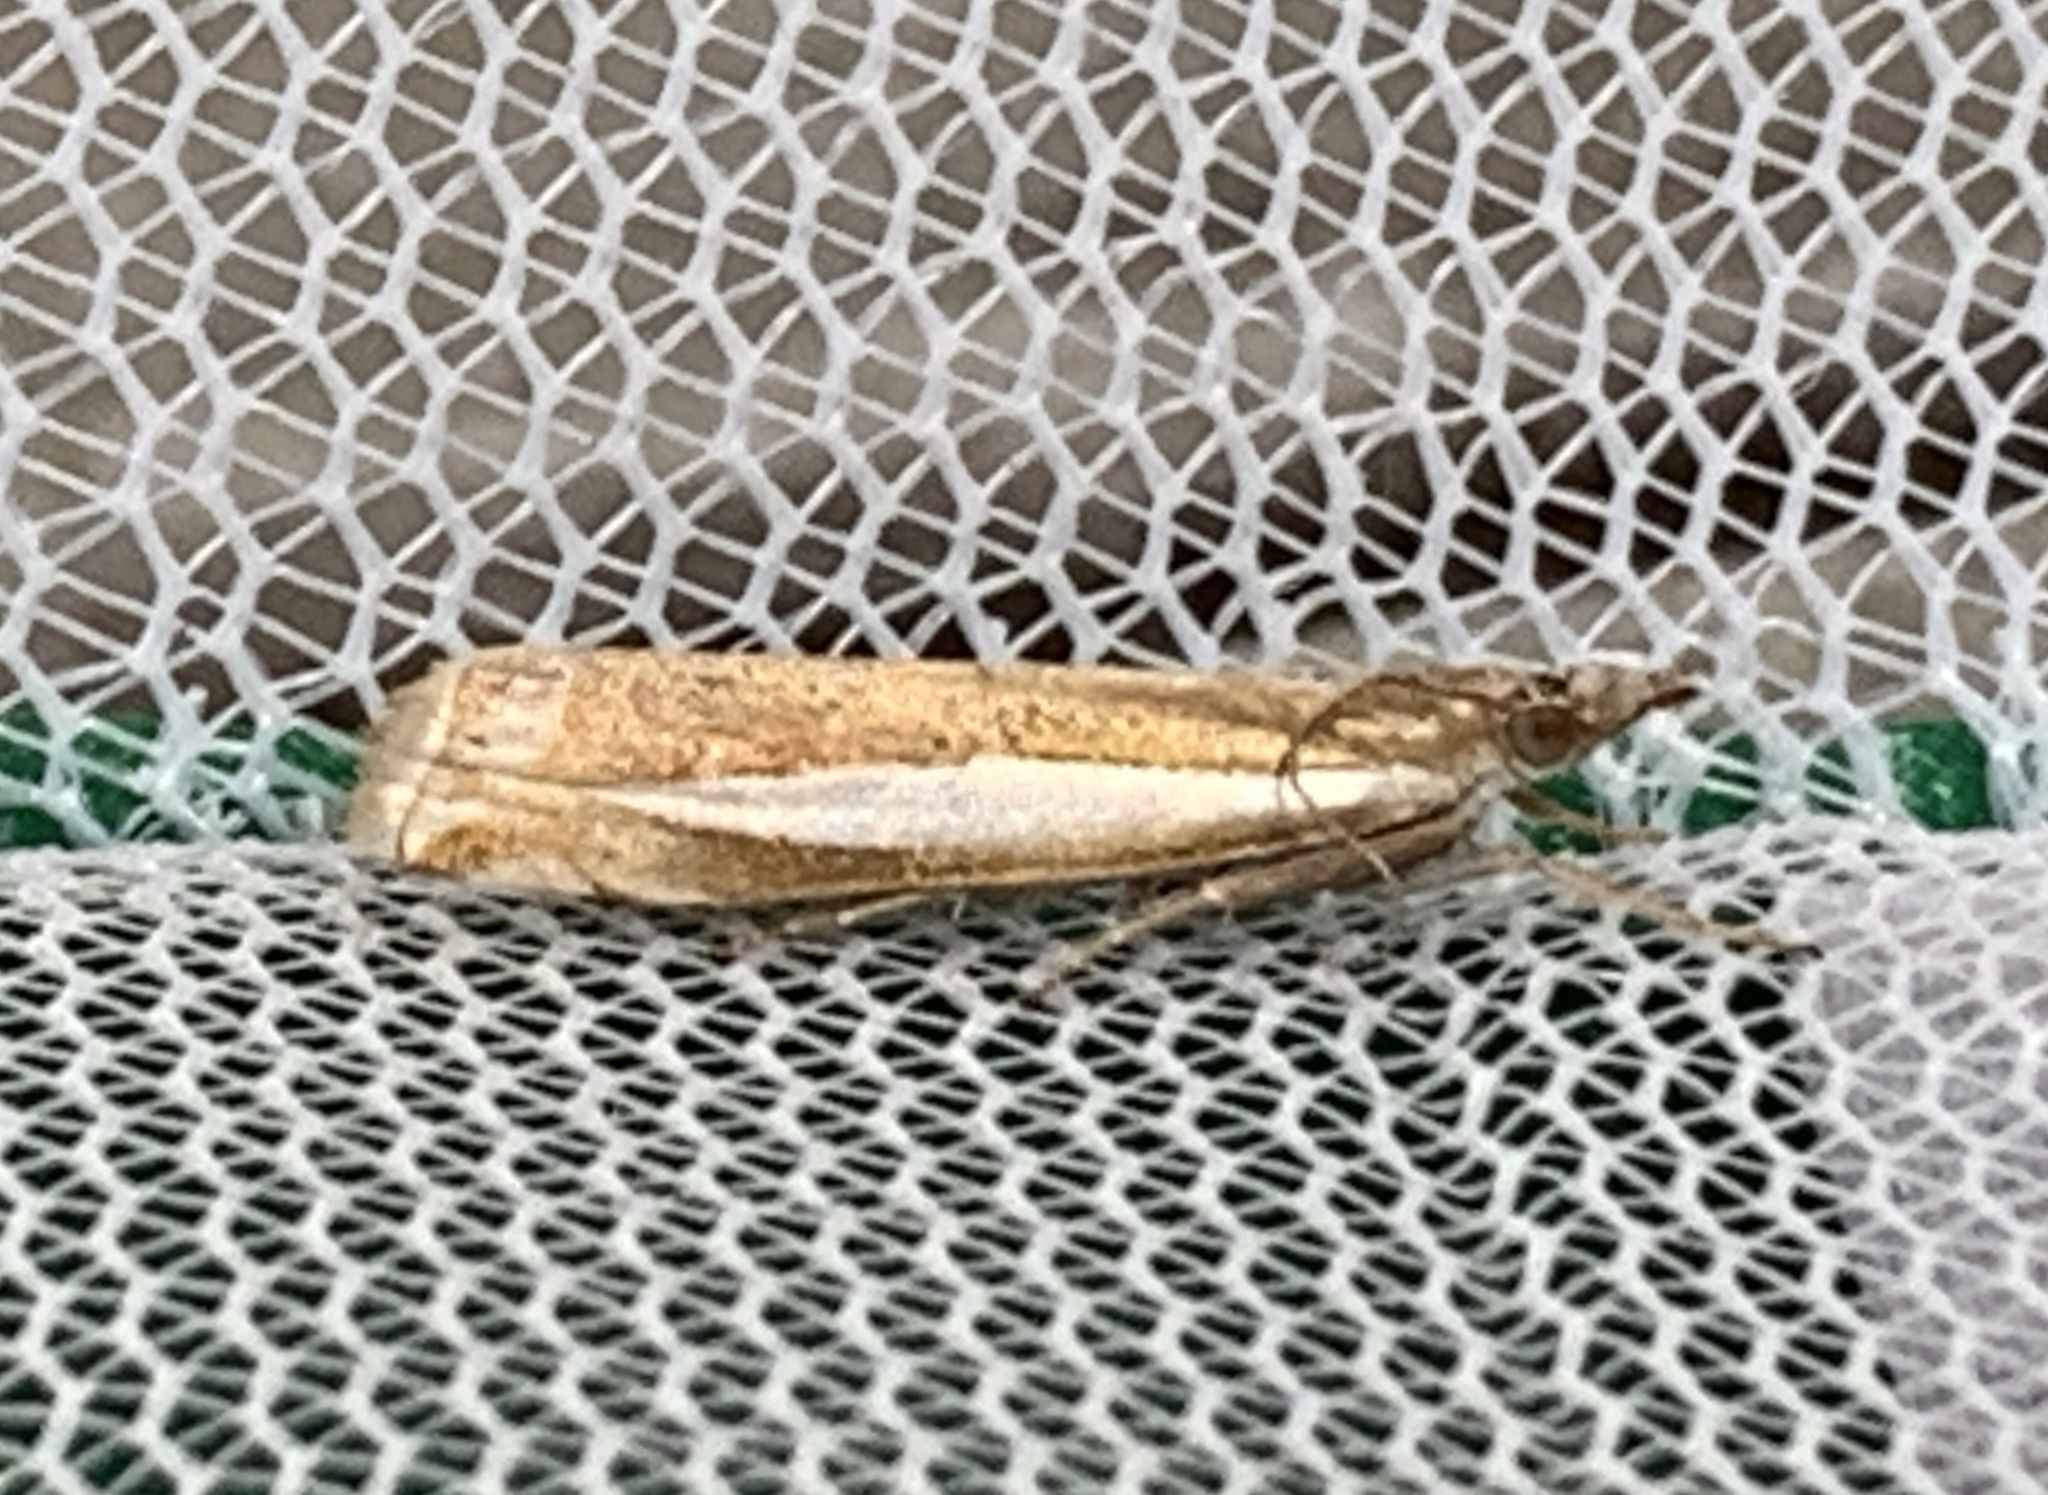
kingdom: Animalia
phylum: Arthropoda
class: Insecta
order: Lepidoptera
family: Crambidae
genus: Crambus
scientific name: Crambus praefectellus
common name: Common grass-veneer
